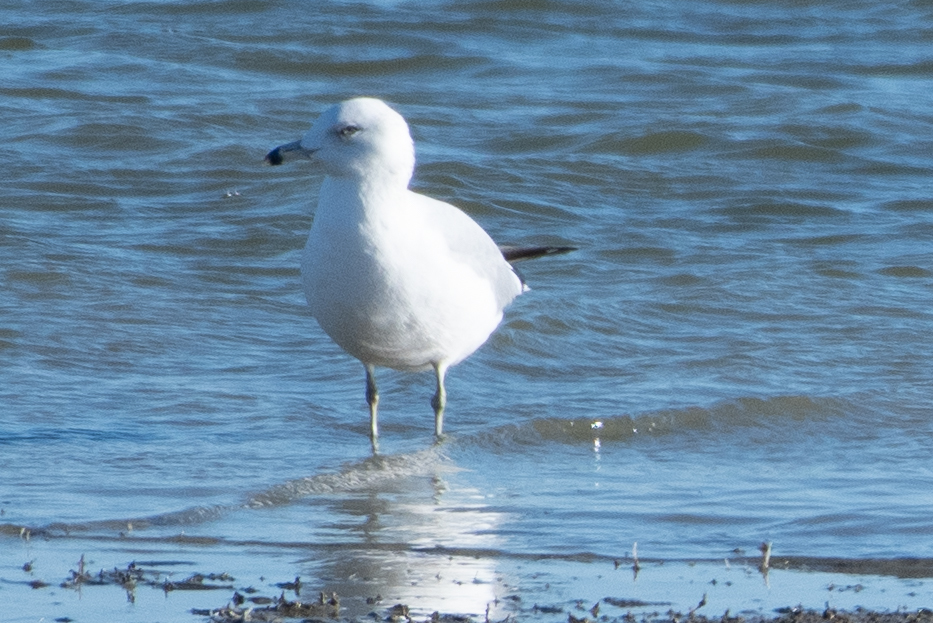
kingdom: Animalia
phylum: Chordata
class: Aves
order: Charadriiformes
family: Laridae
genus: Larus
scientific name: Larus delawarensis
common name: Ring-billed gull
